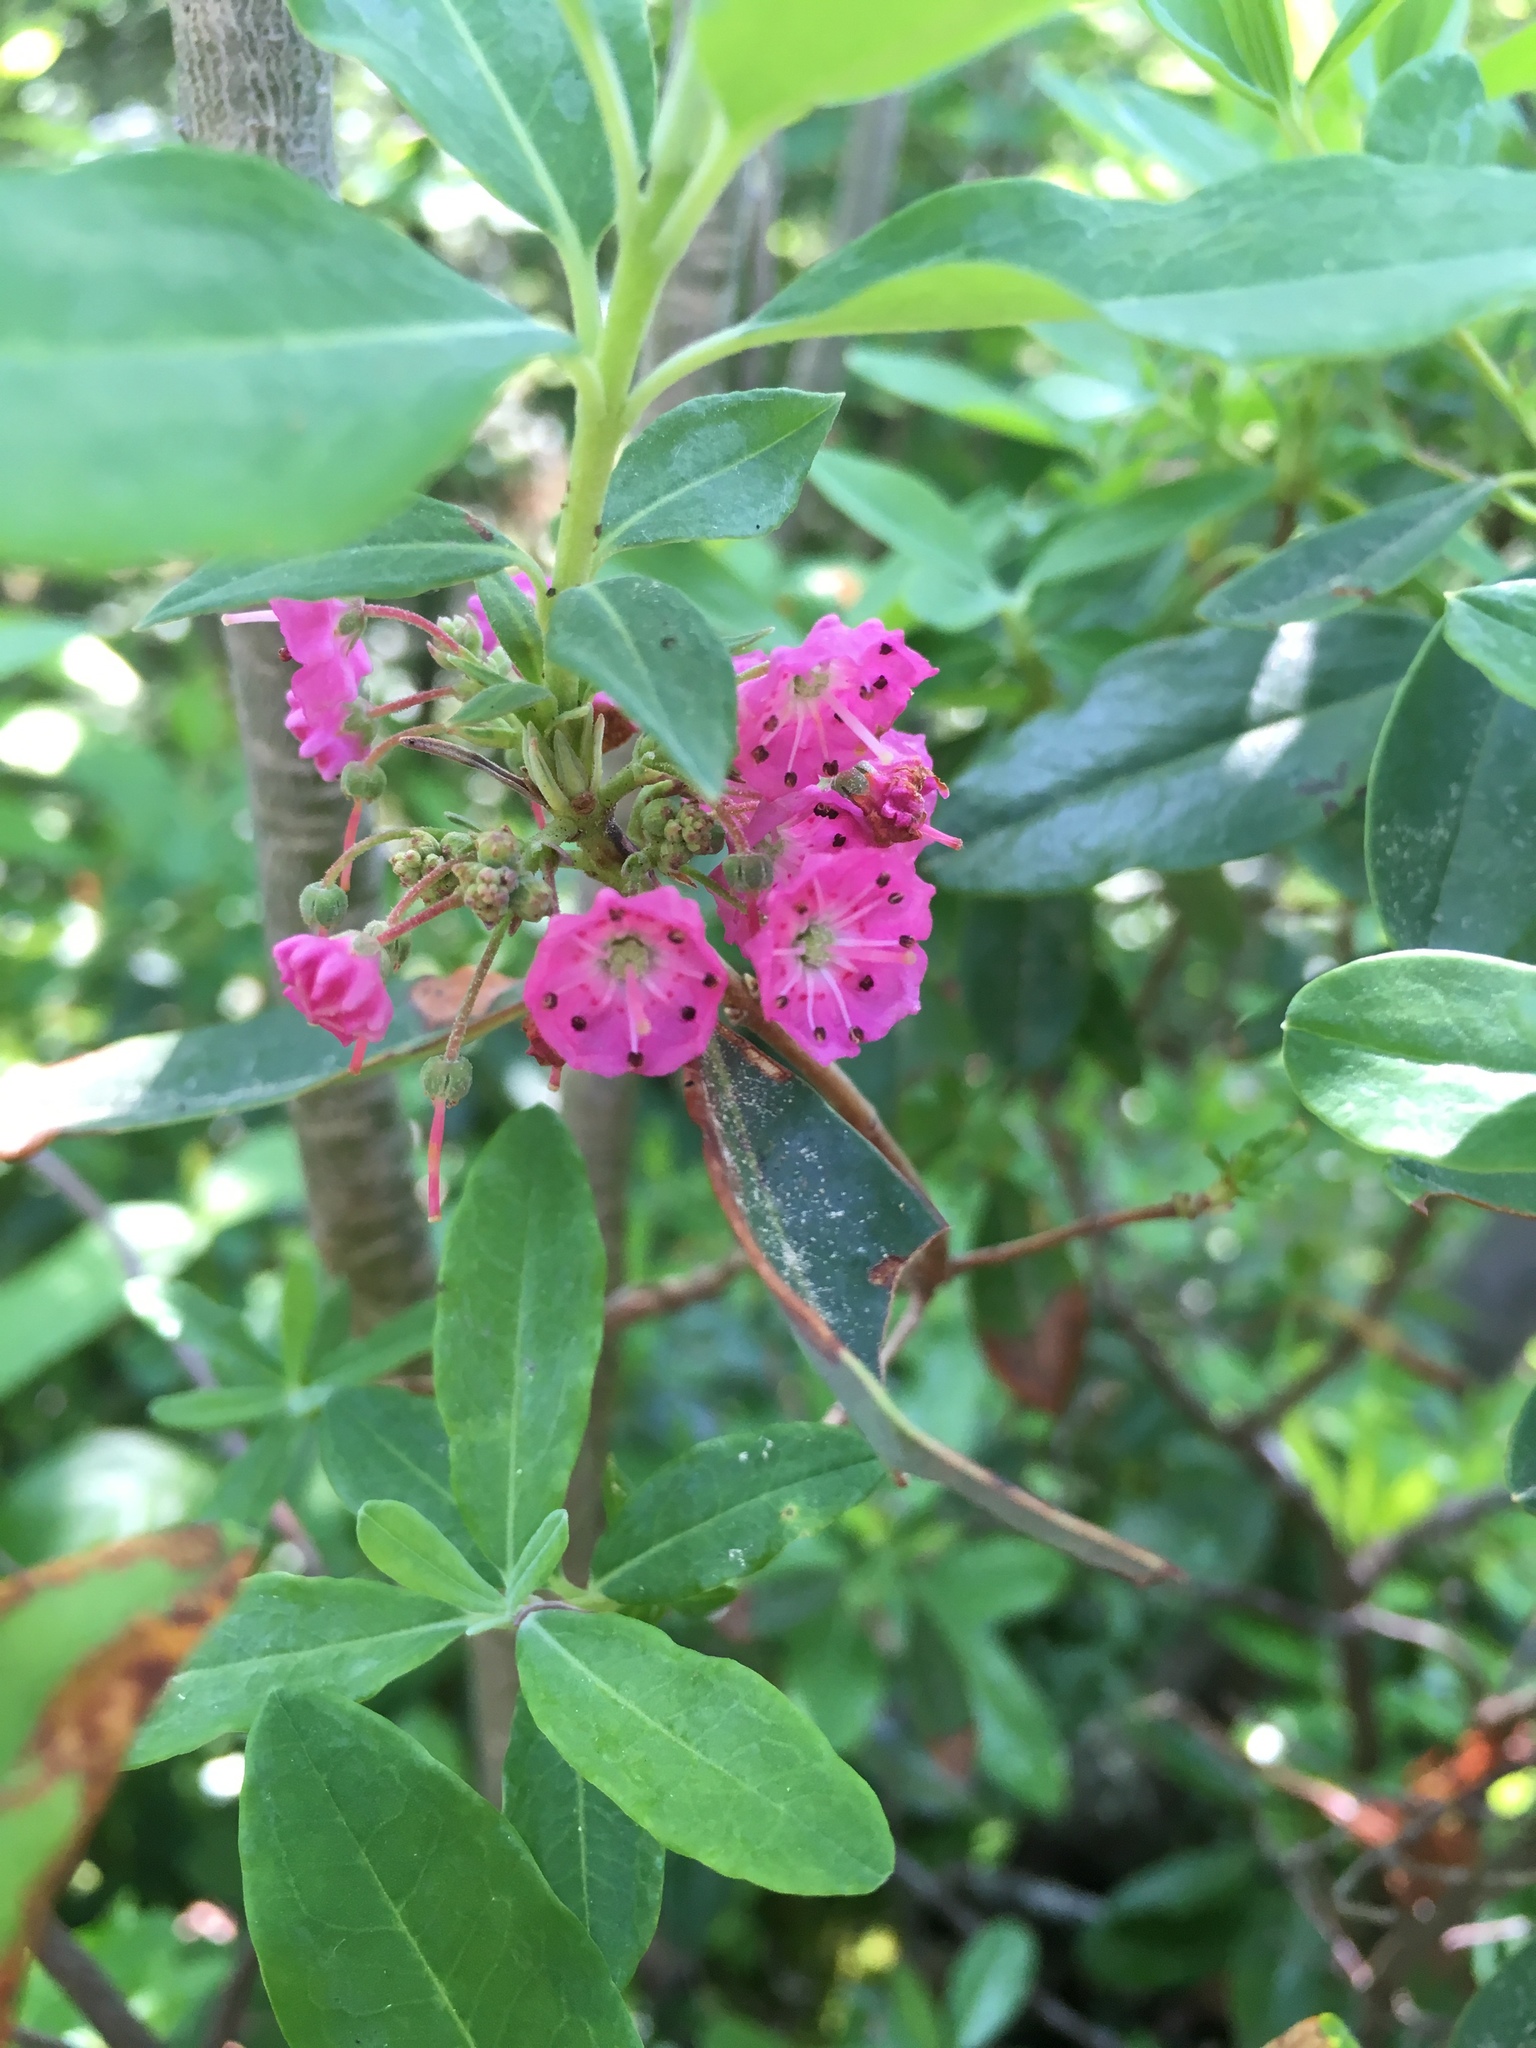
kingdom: Plantae
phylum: Tracheophyta
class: Magnoliopsida
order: Ericales
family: Ericaceae
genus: Kalmia
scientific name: Kalmia angustifolia
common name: Sheep-laurel
